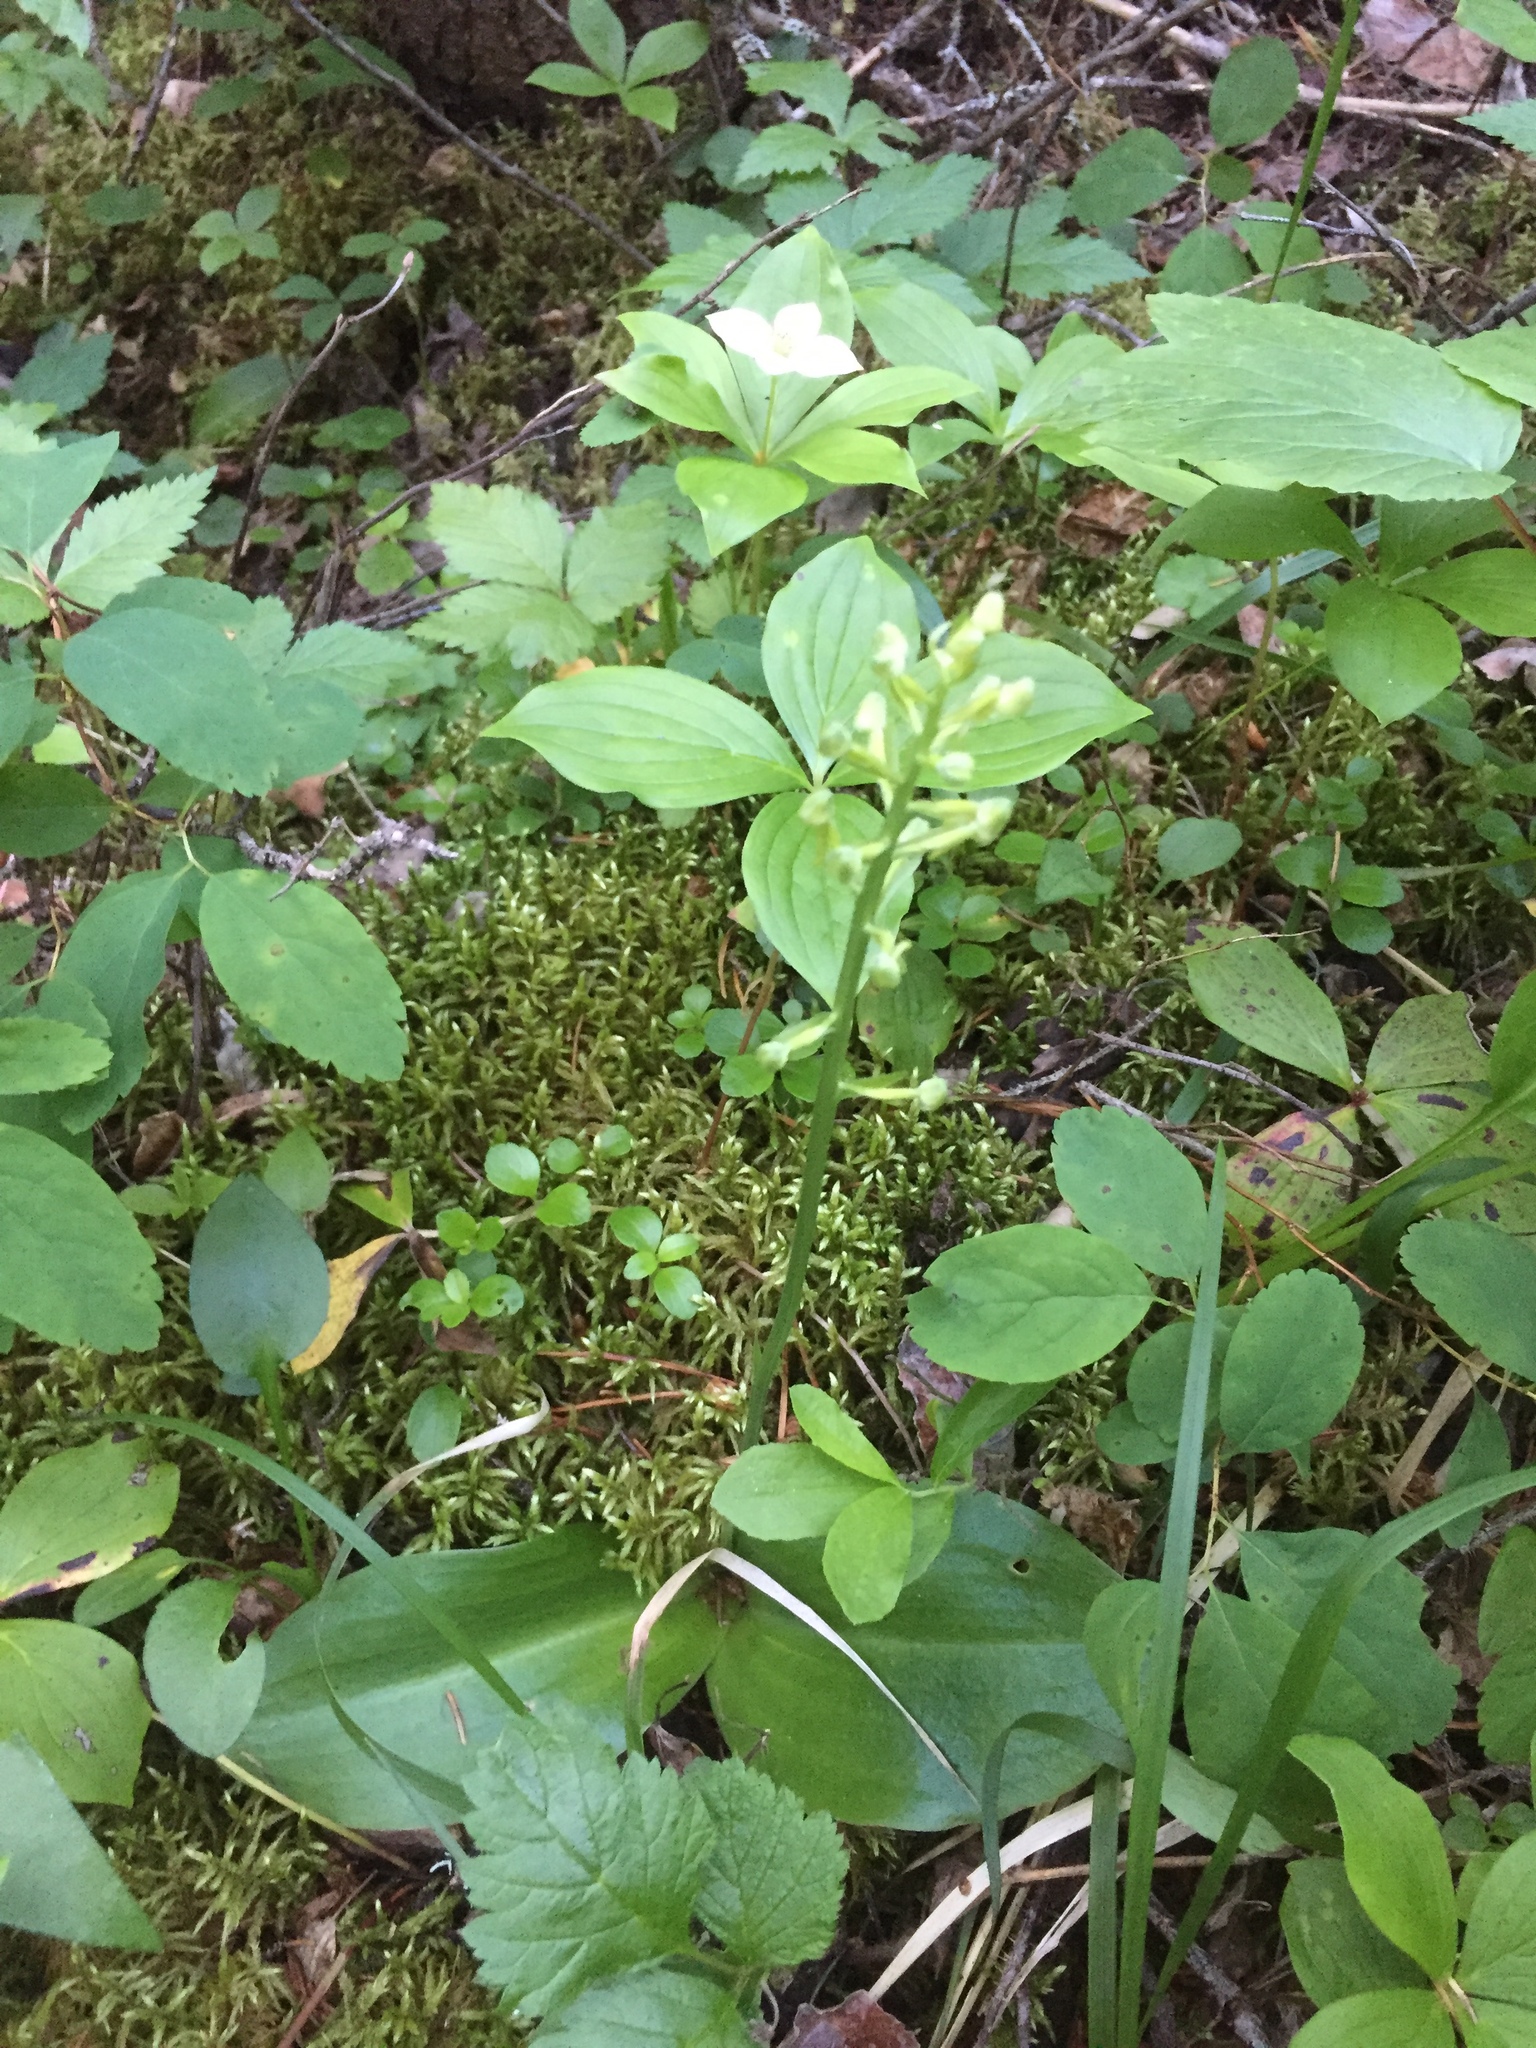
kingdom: Plantae
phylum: Tracheophyta
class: Liliopsida
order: Asparagales
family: Orchidaceae
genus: Platanthera
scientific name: Platanthera orbiculata
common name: Large round-leaved orchid
